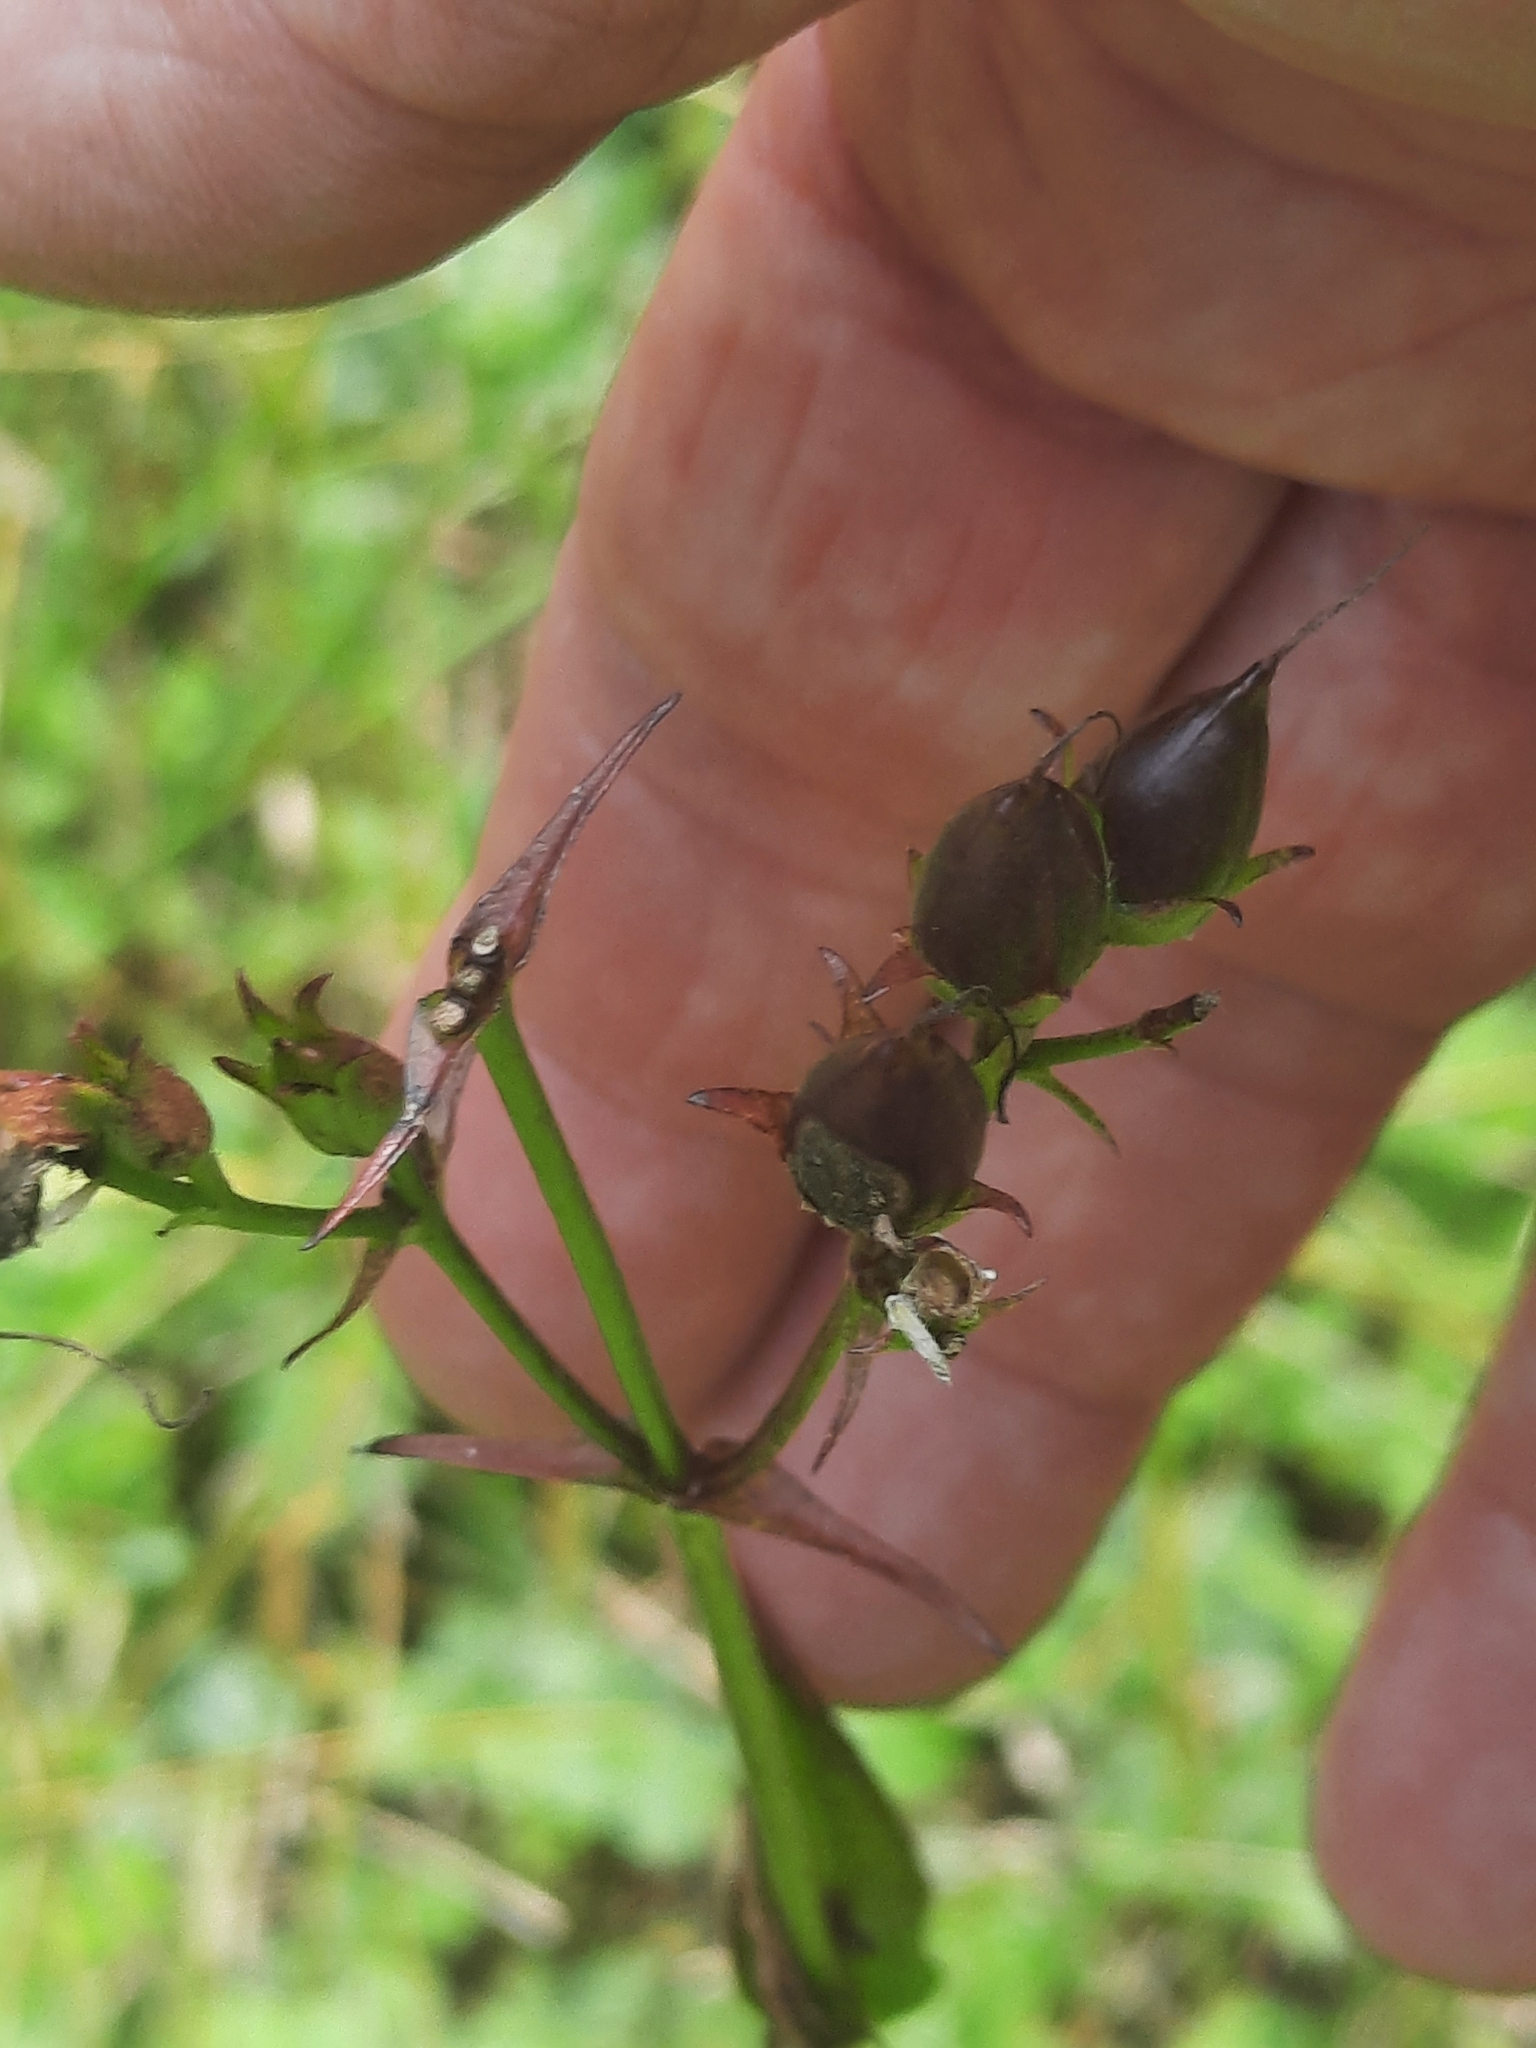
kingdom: Plantae
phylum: Tracheophyta
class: Magnoliopsida
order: Lamiales
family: Plantaginaceae
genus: Penstemon
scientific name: Penstemon digitalis
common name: Foxglove beardtongue
